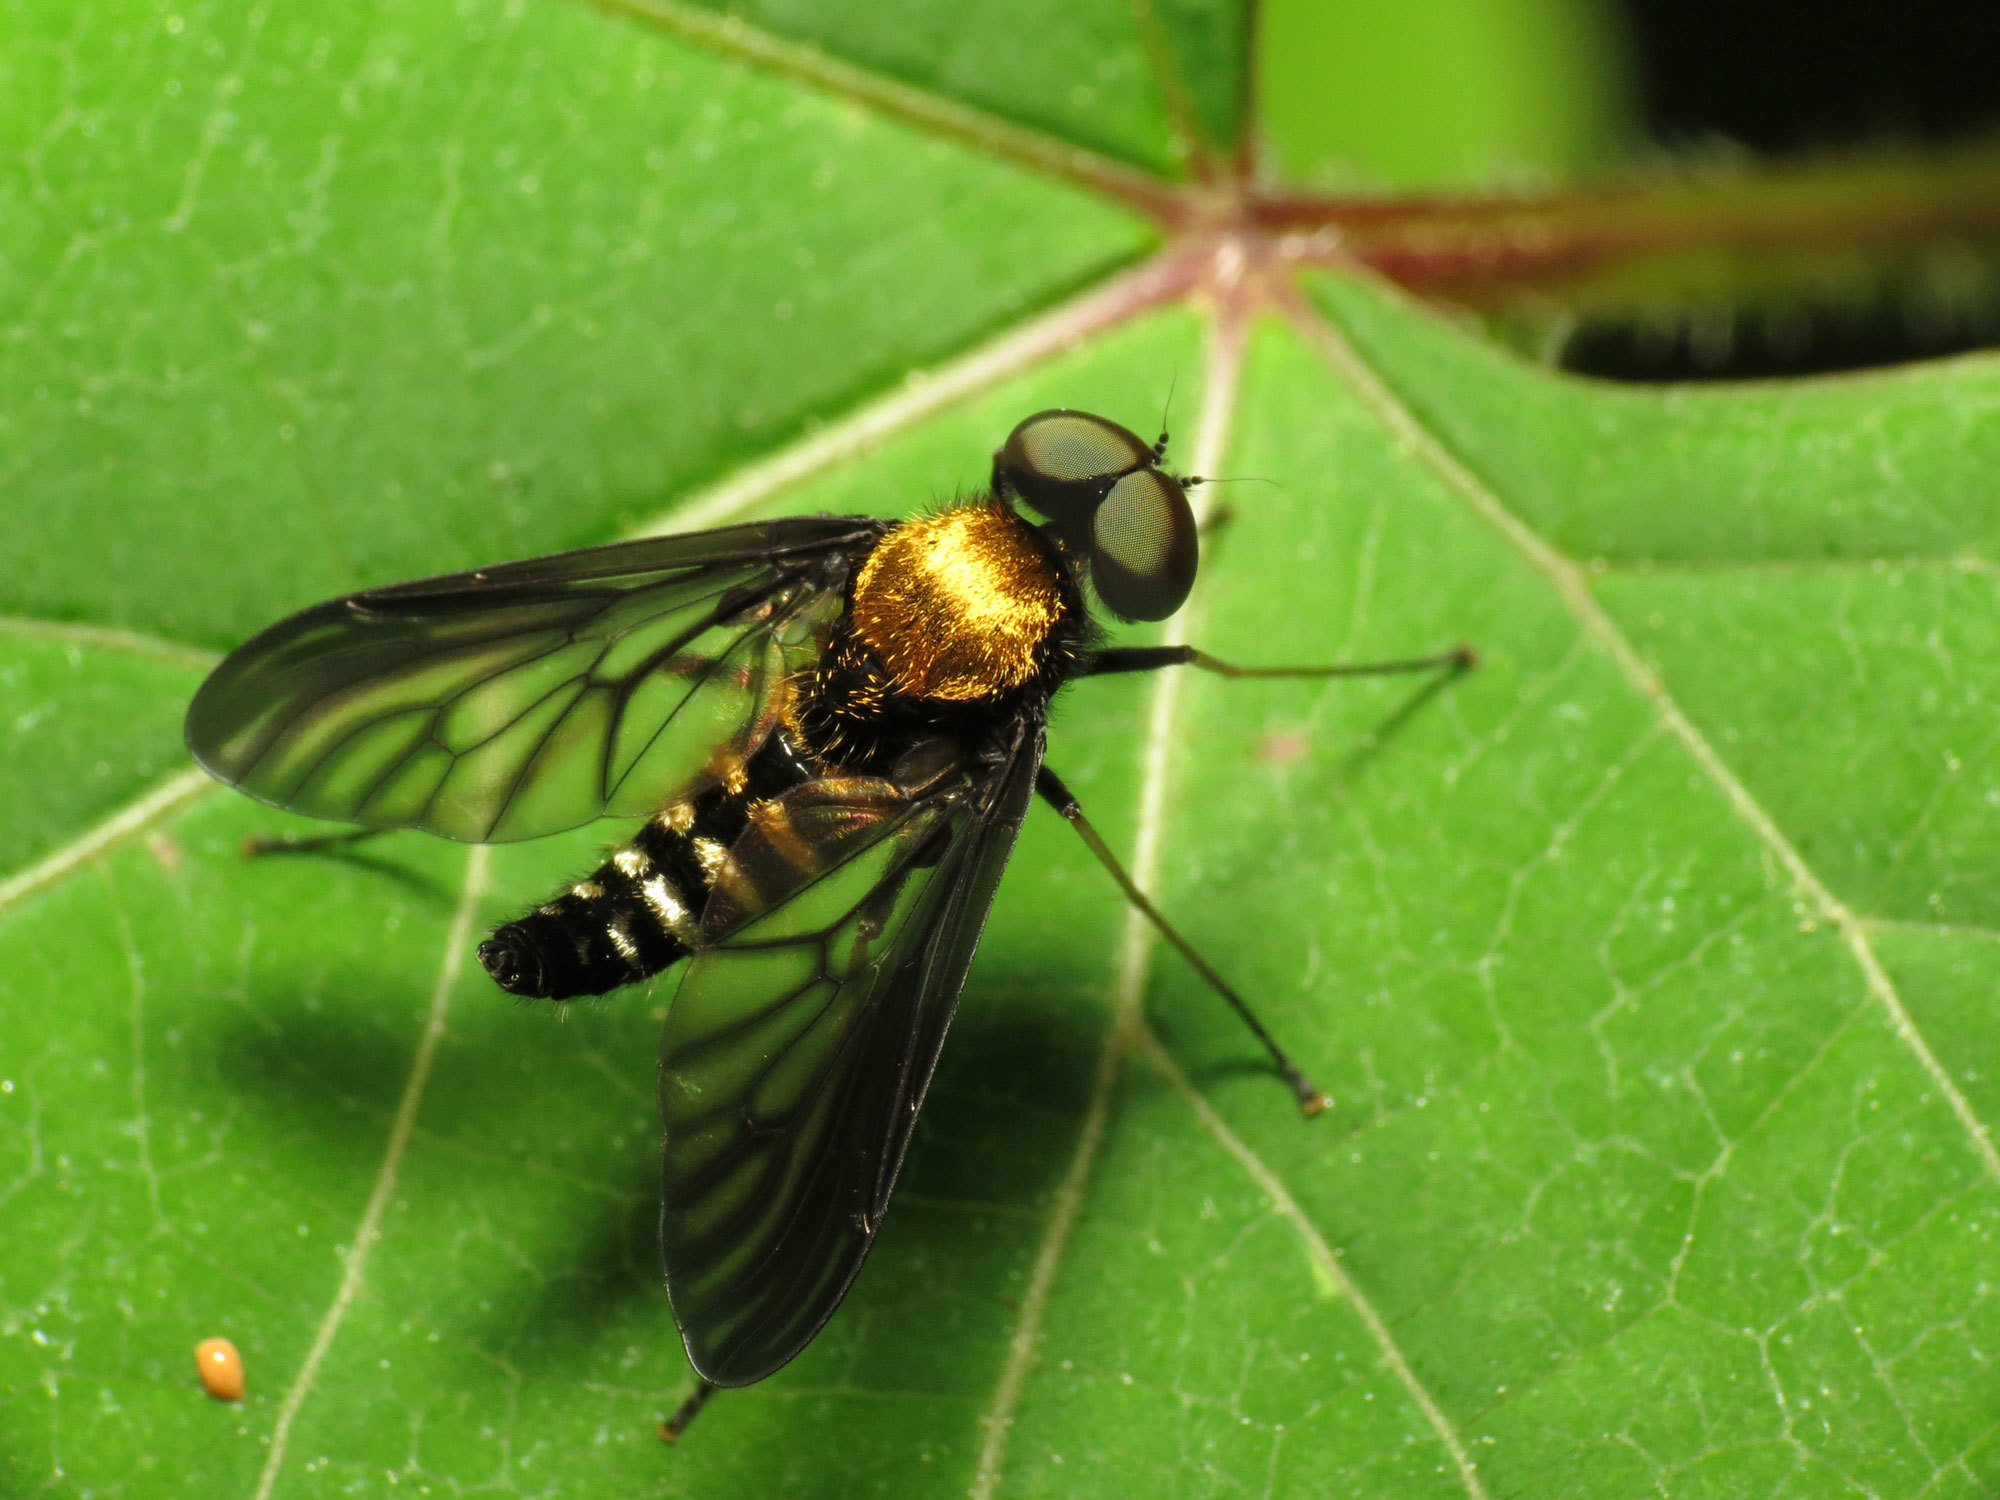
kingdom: Animalia
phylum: Arthropoda
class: Insecta
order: Diptera
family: Rhagionidae
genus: Chrysopilus
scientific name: Chrysopilus thoracicus
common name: Golden-backed snipe fly
